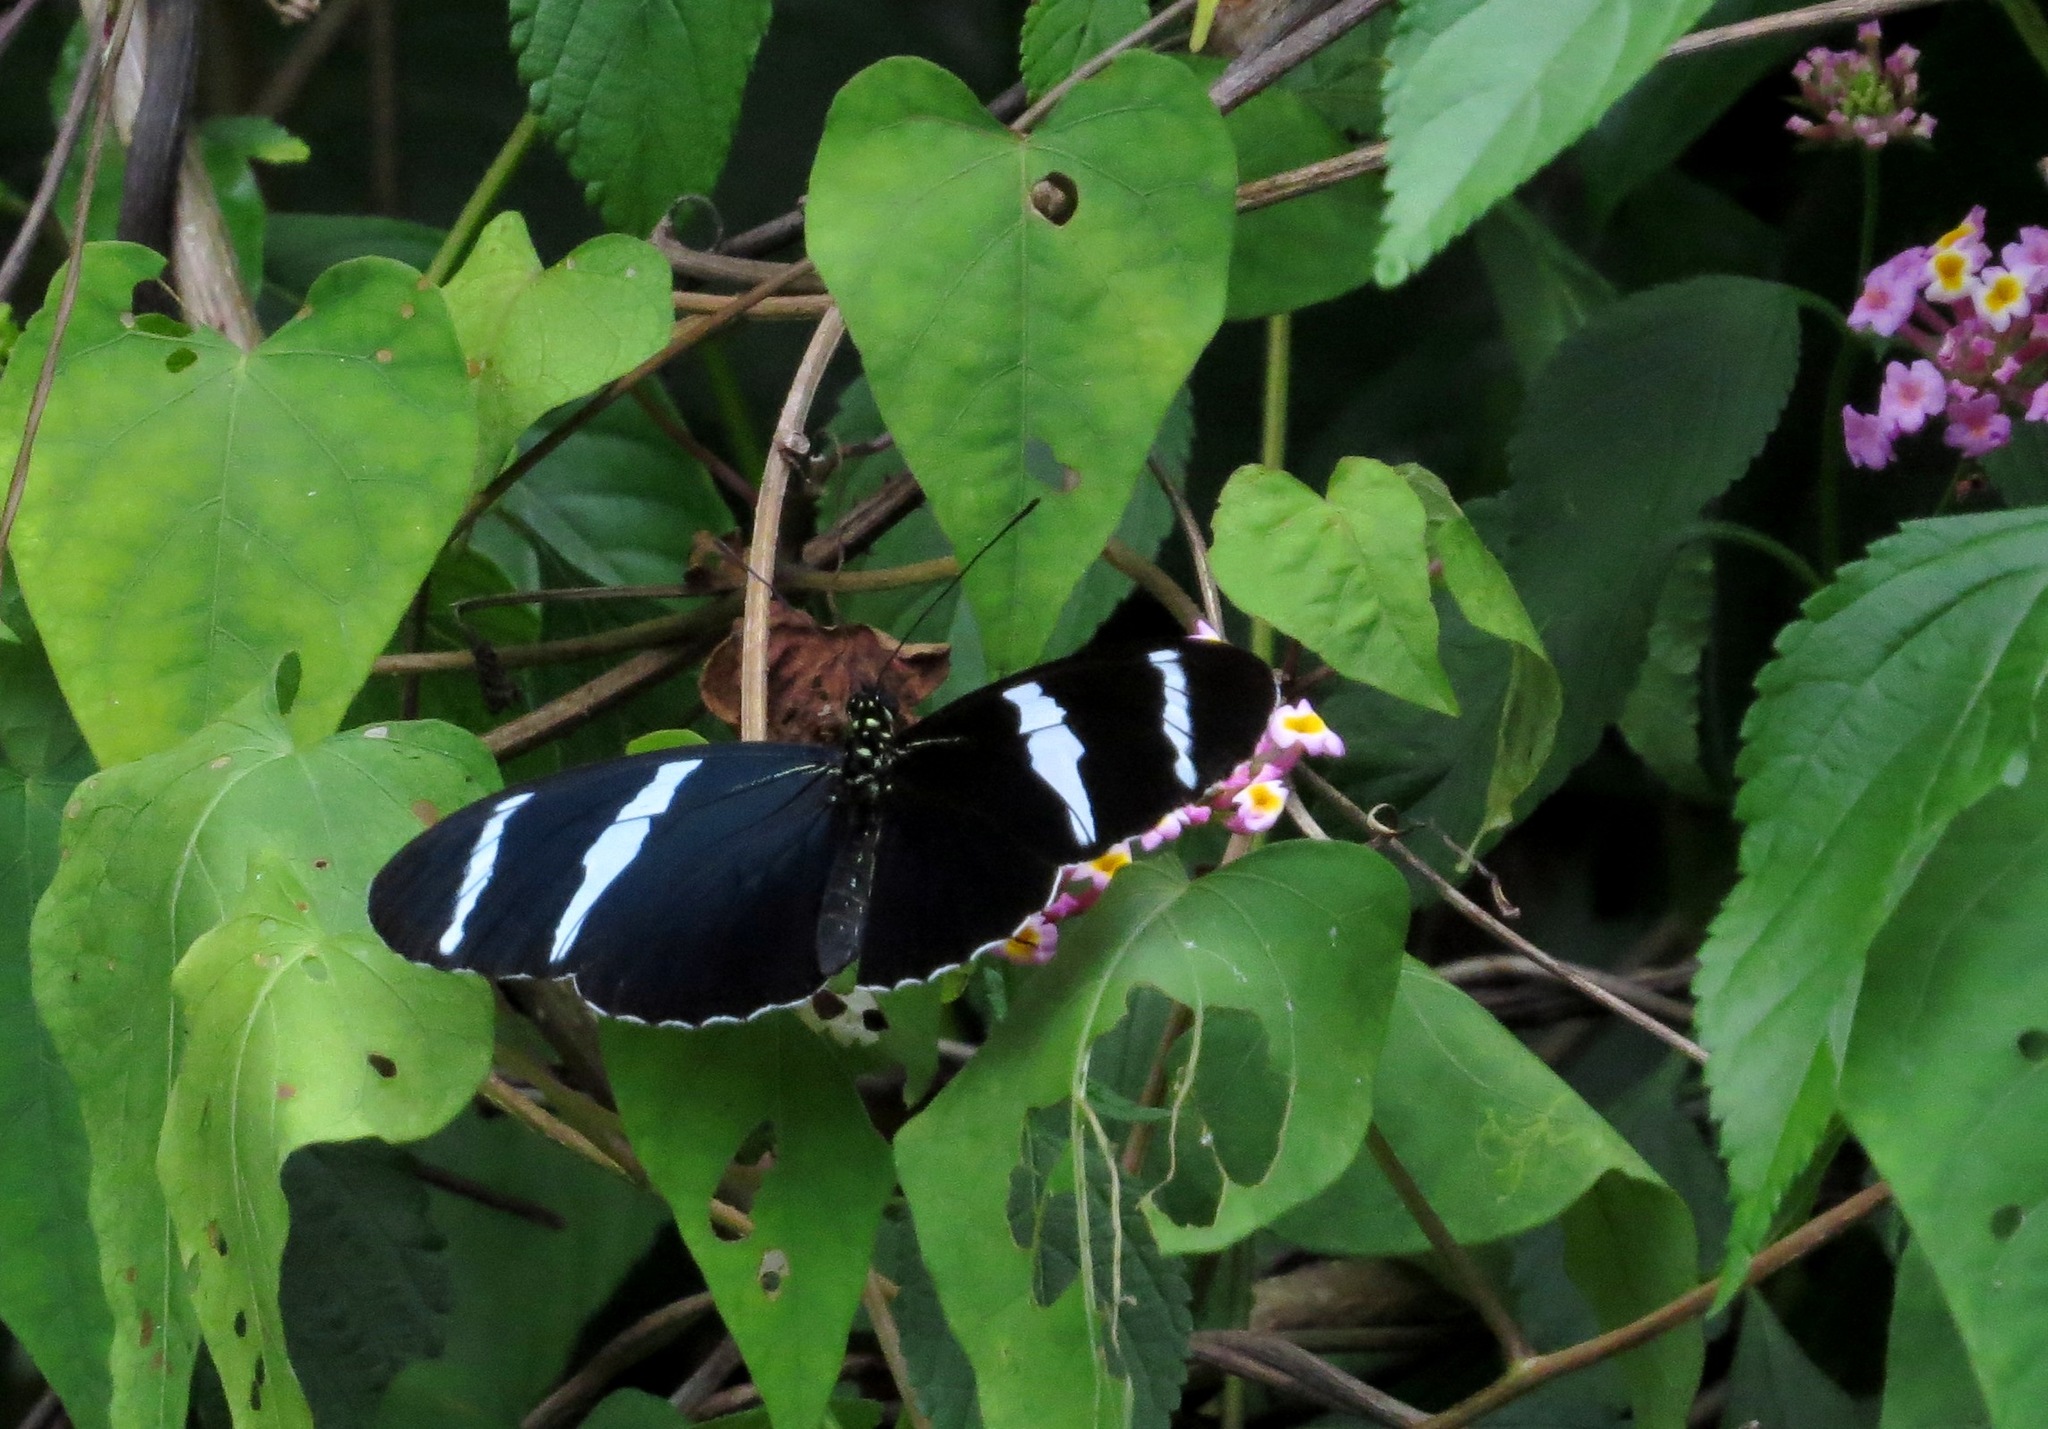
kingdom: Animalia
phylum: Arthropoda
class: Insecta
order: Lepidoptera
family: Nymphalidae
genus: Heliconius
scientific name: Heliconius antiochus
